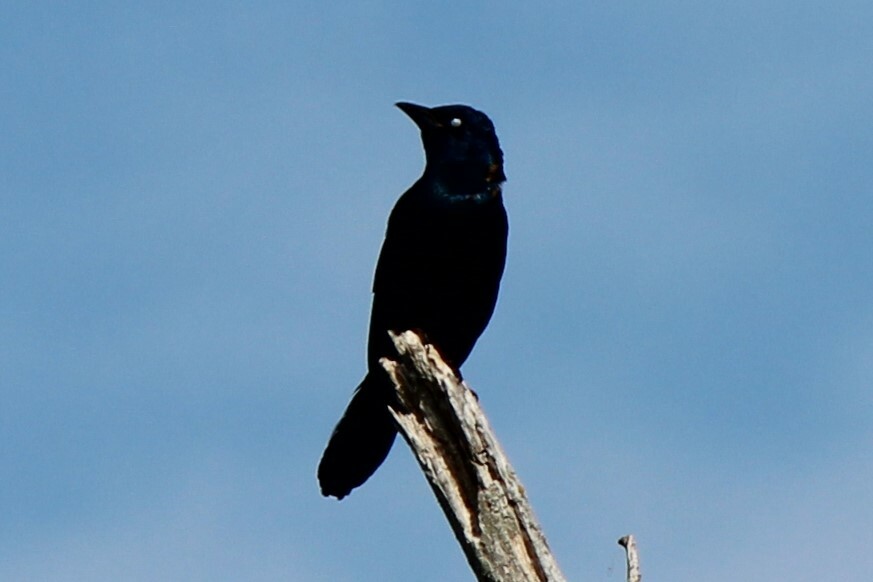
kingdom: Animalia
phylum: Chordata
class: Aves
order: Passeriformes
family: Icteridae
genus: Quiscalus
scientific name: Quiscalus quiscula
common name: Common grackle
